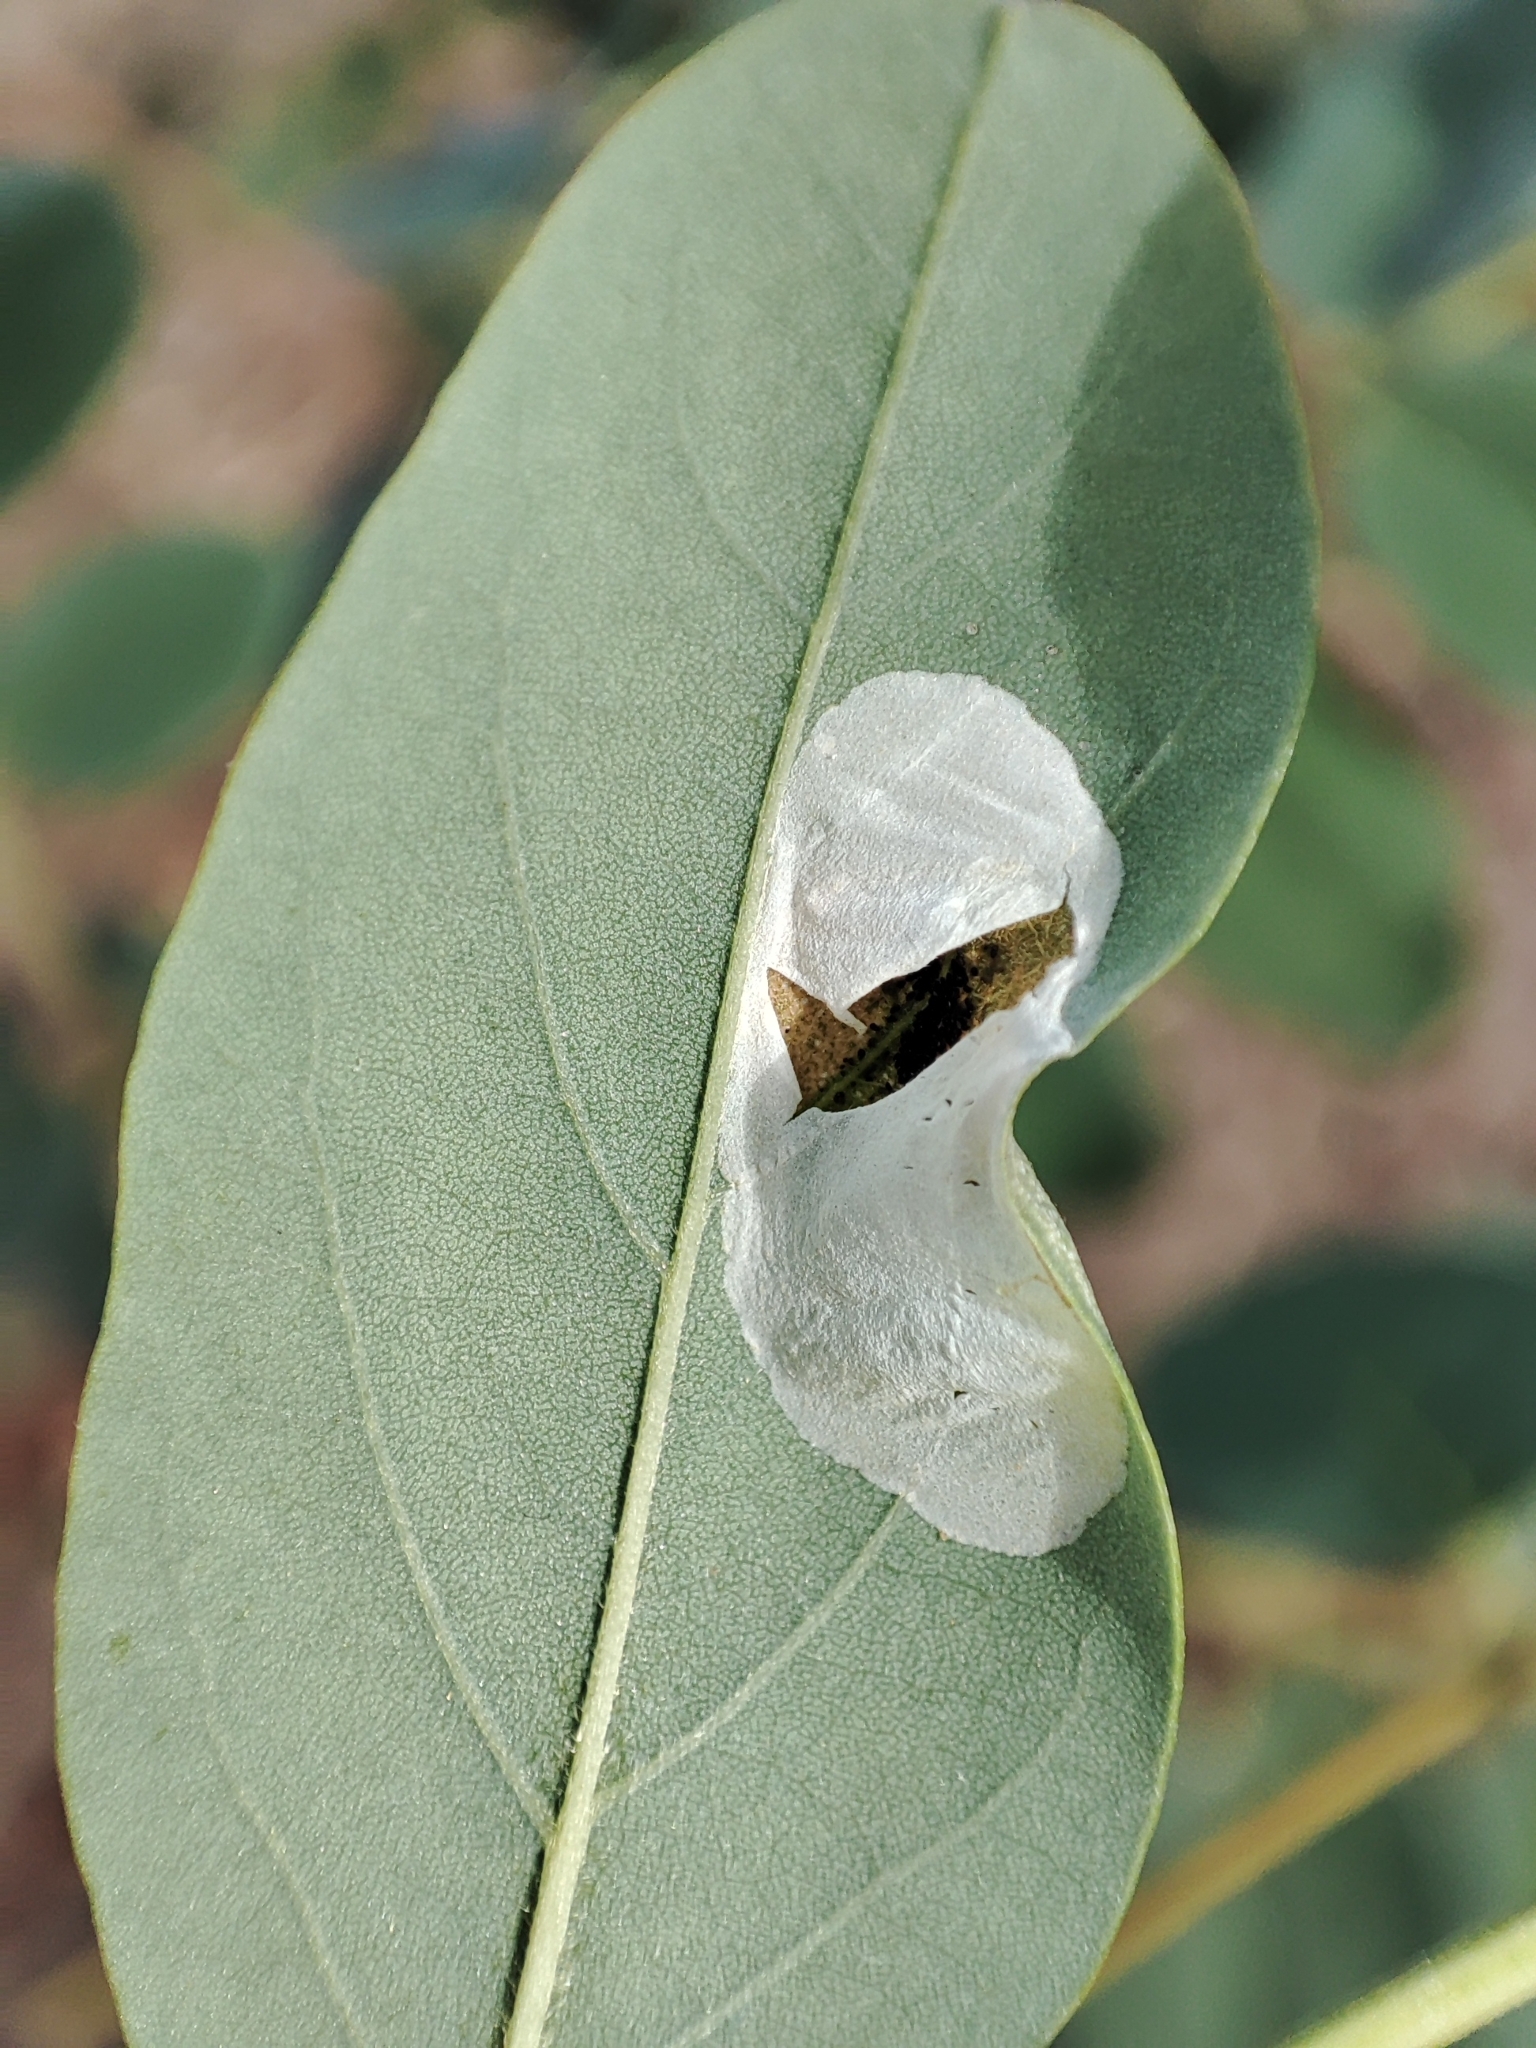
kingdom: Animalia
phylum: Arthropoda
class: Insecta
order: Lepidoptera
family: Gracillariidae
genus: Macrosaccus
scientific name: Macrosaccus robiniella
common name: Leaf blotch miner moth
